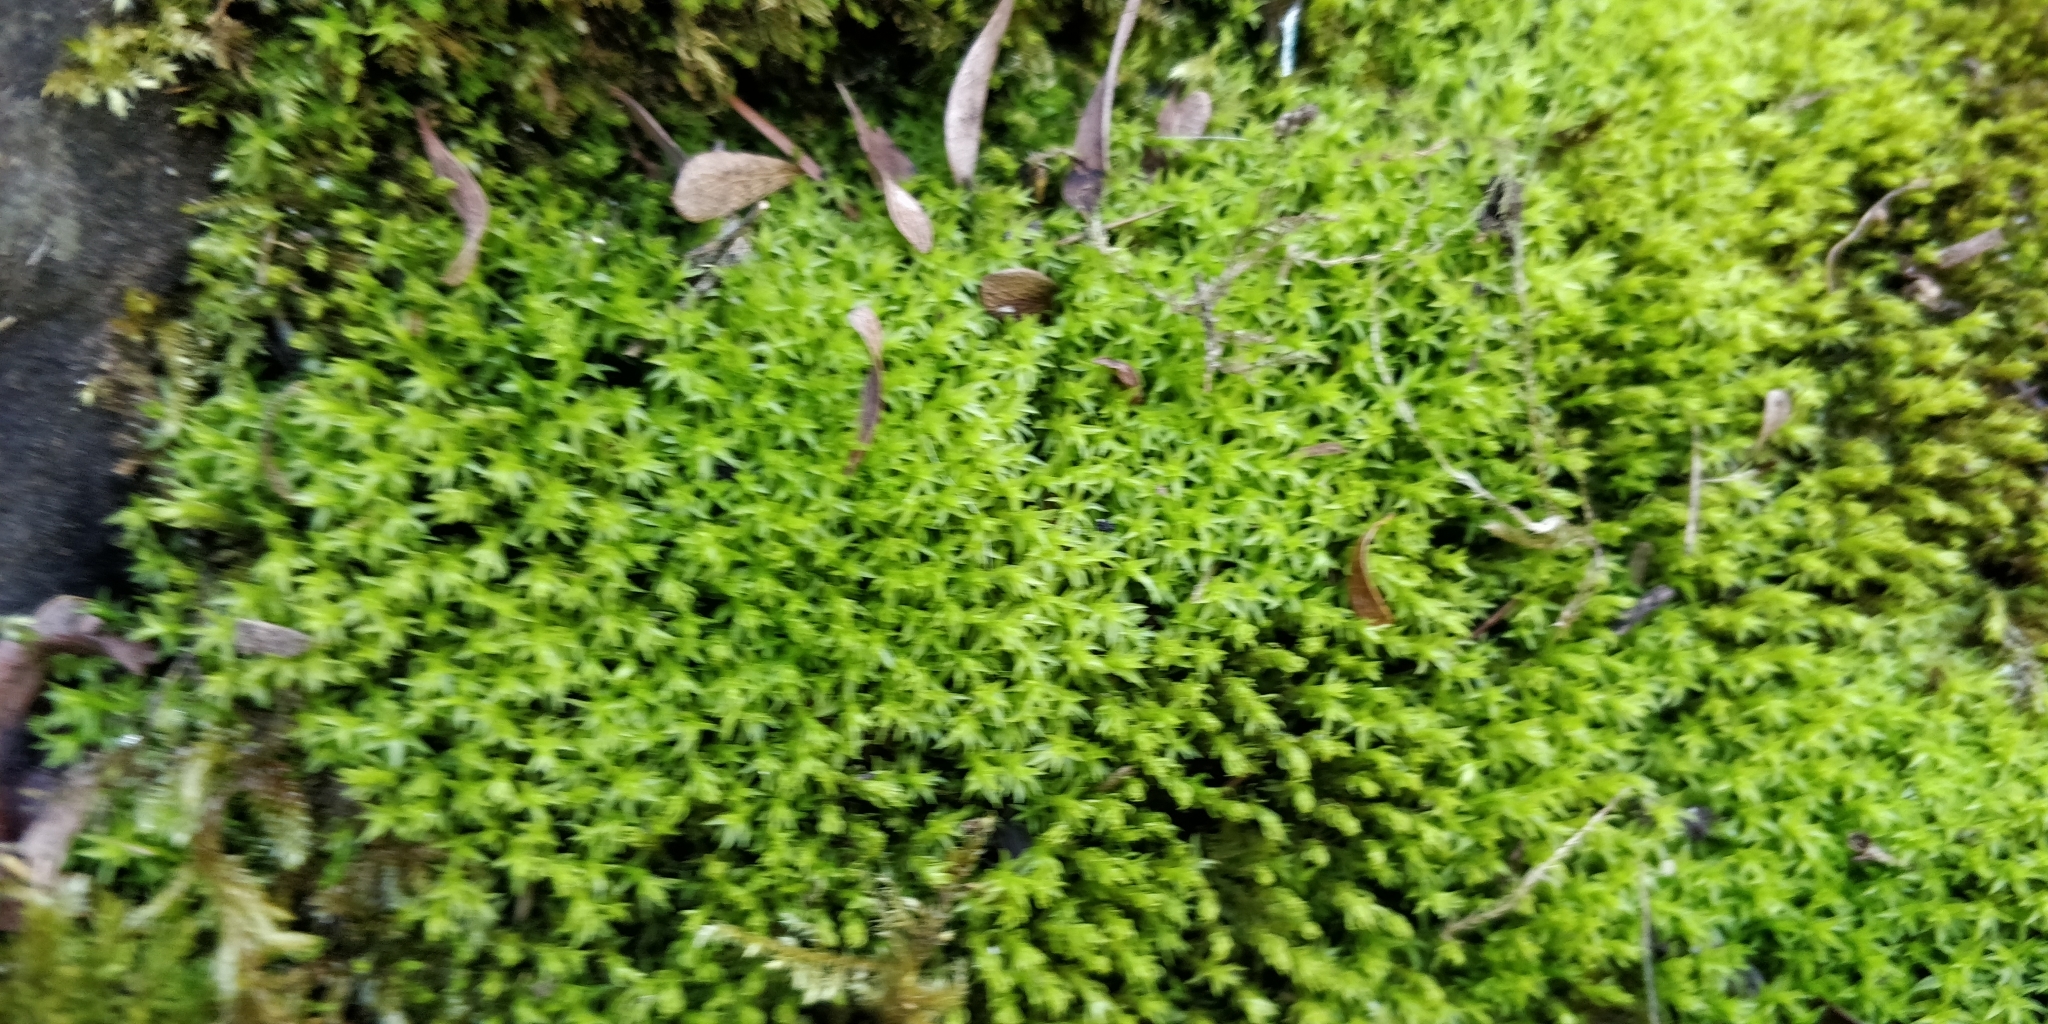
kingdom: Plantae
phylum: Bryophyta
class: Bryopsida
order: Pottiales
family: Pottiaceae
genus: Syntrichia
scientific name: Syntrichia ruralis
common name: Sidewalk screw moss
